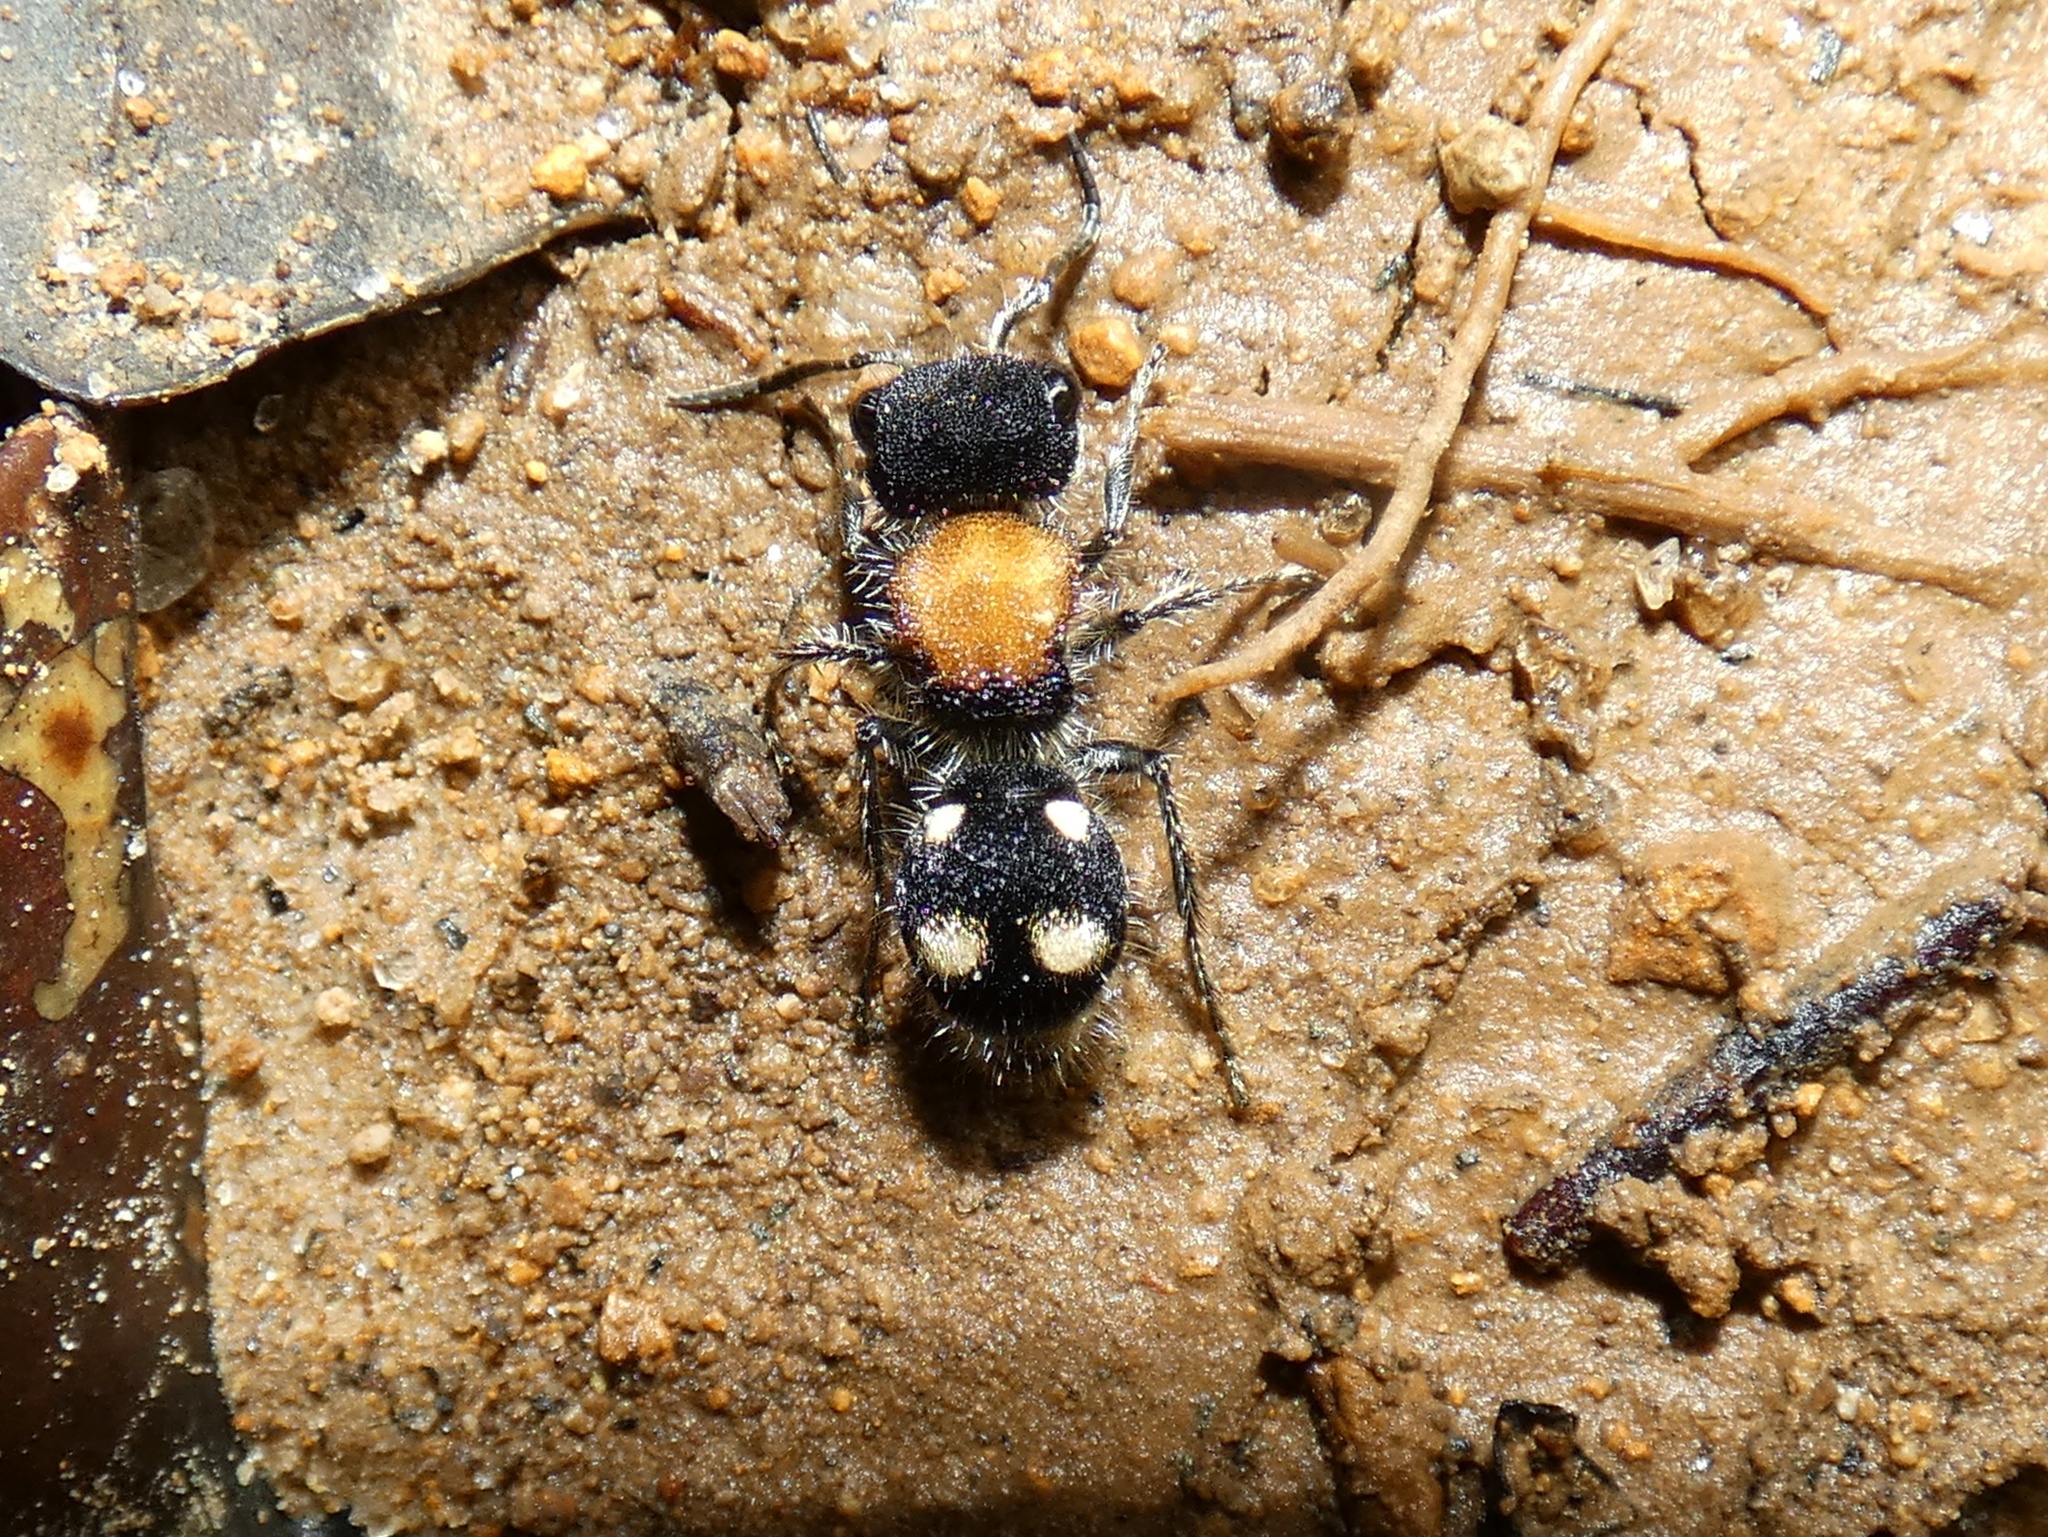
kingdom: Animalia
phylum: Arthropoda
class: Insecta
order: Hymenoptera
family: Mutillidae
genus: Pseudomethoca
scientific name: Pseudomethoca
